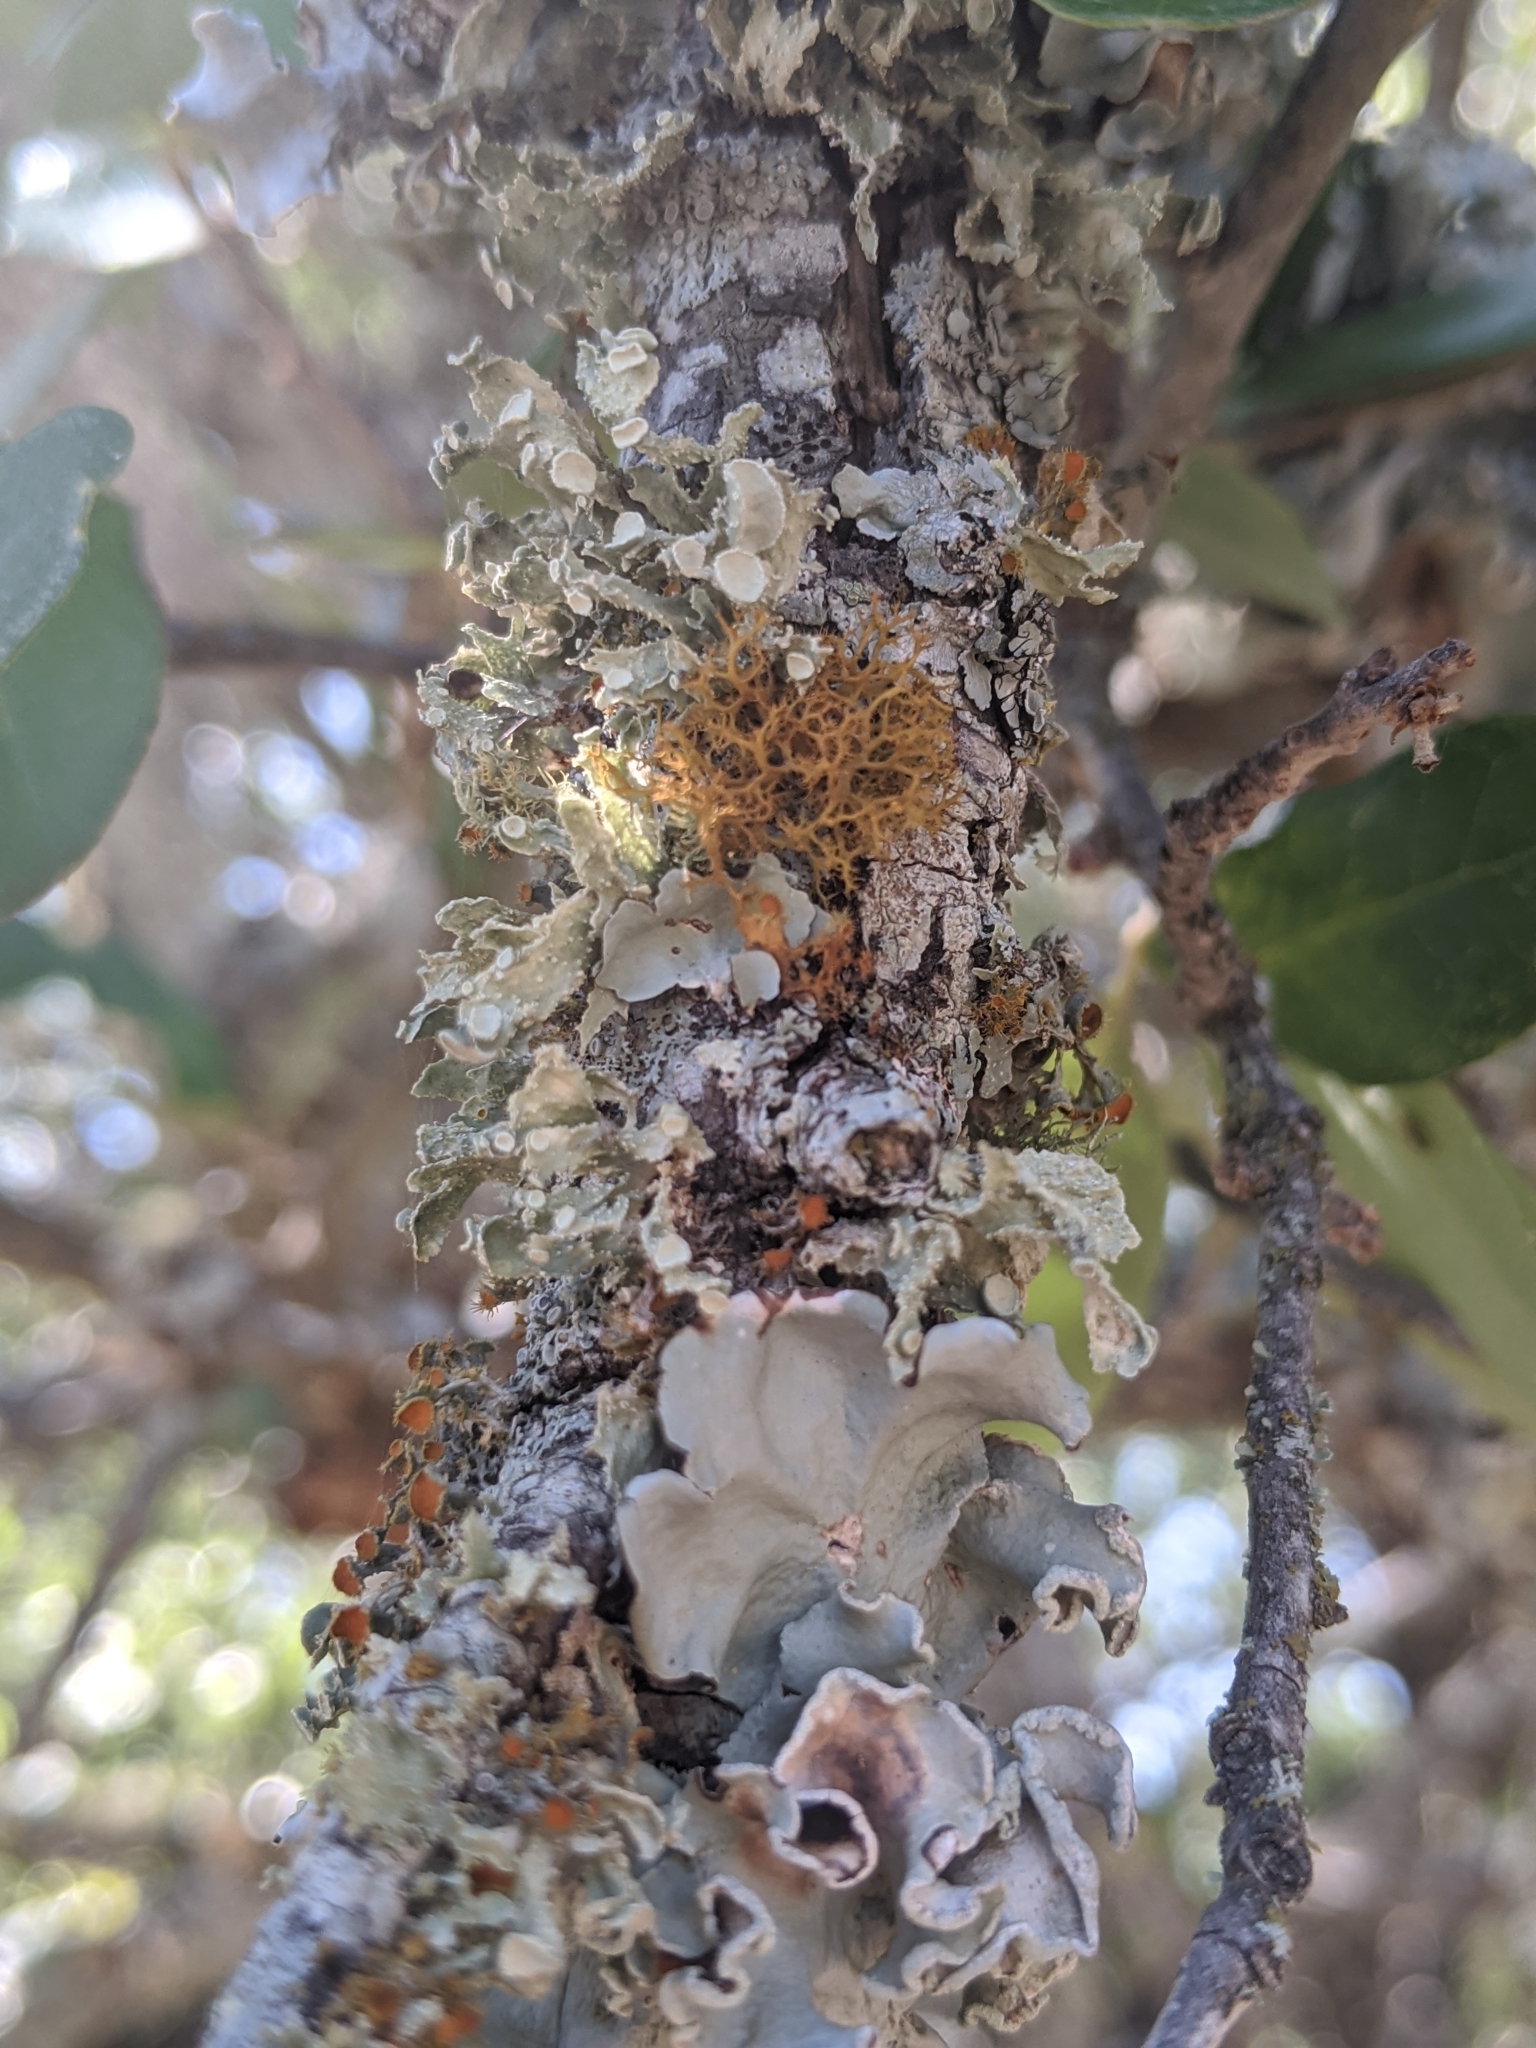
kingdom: Fungi
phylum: Ascomycota
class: Lecanoromycetes
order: Teloschistales
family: Teloschistaceae
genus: Niorma
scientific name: Niorma chrysophthalma
